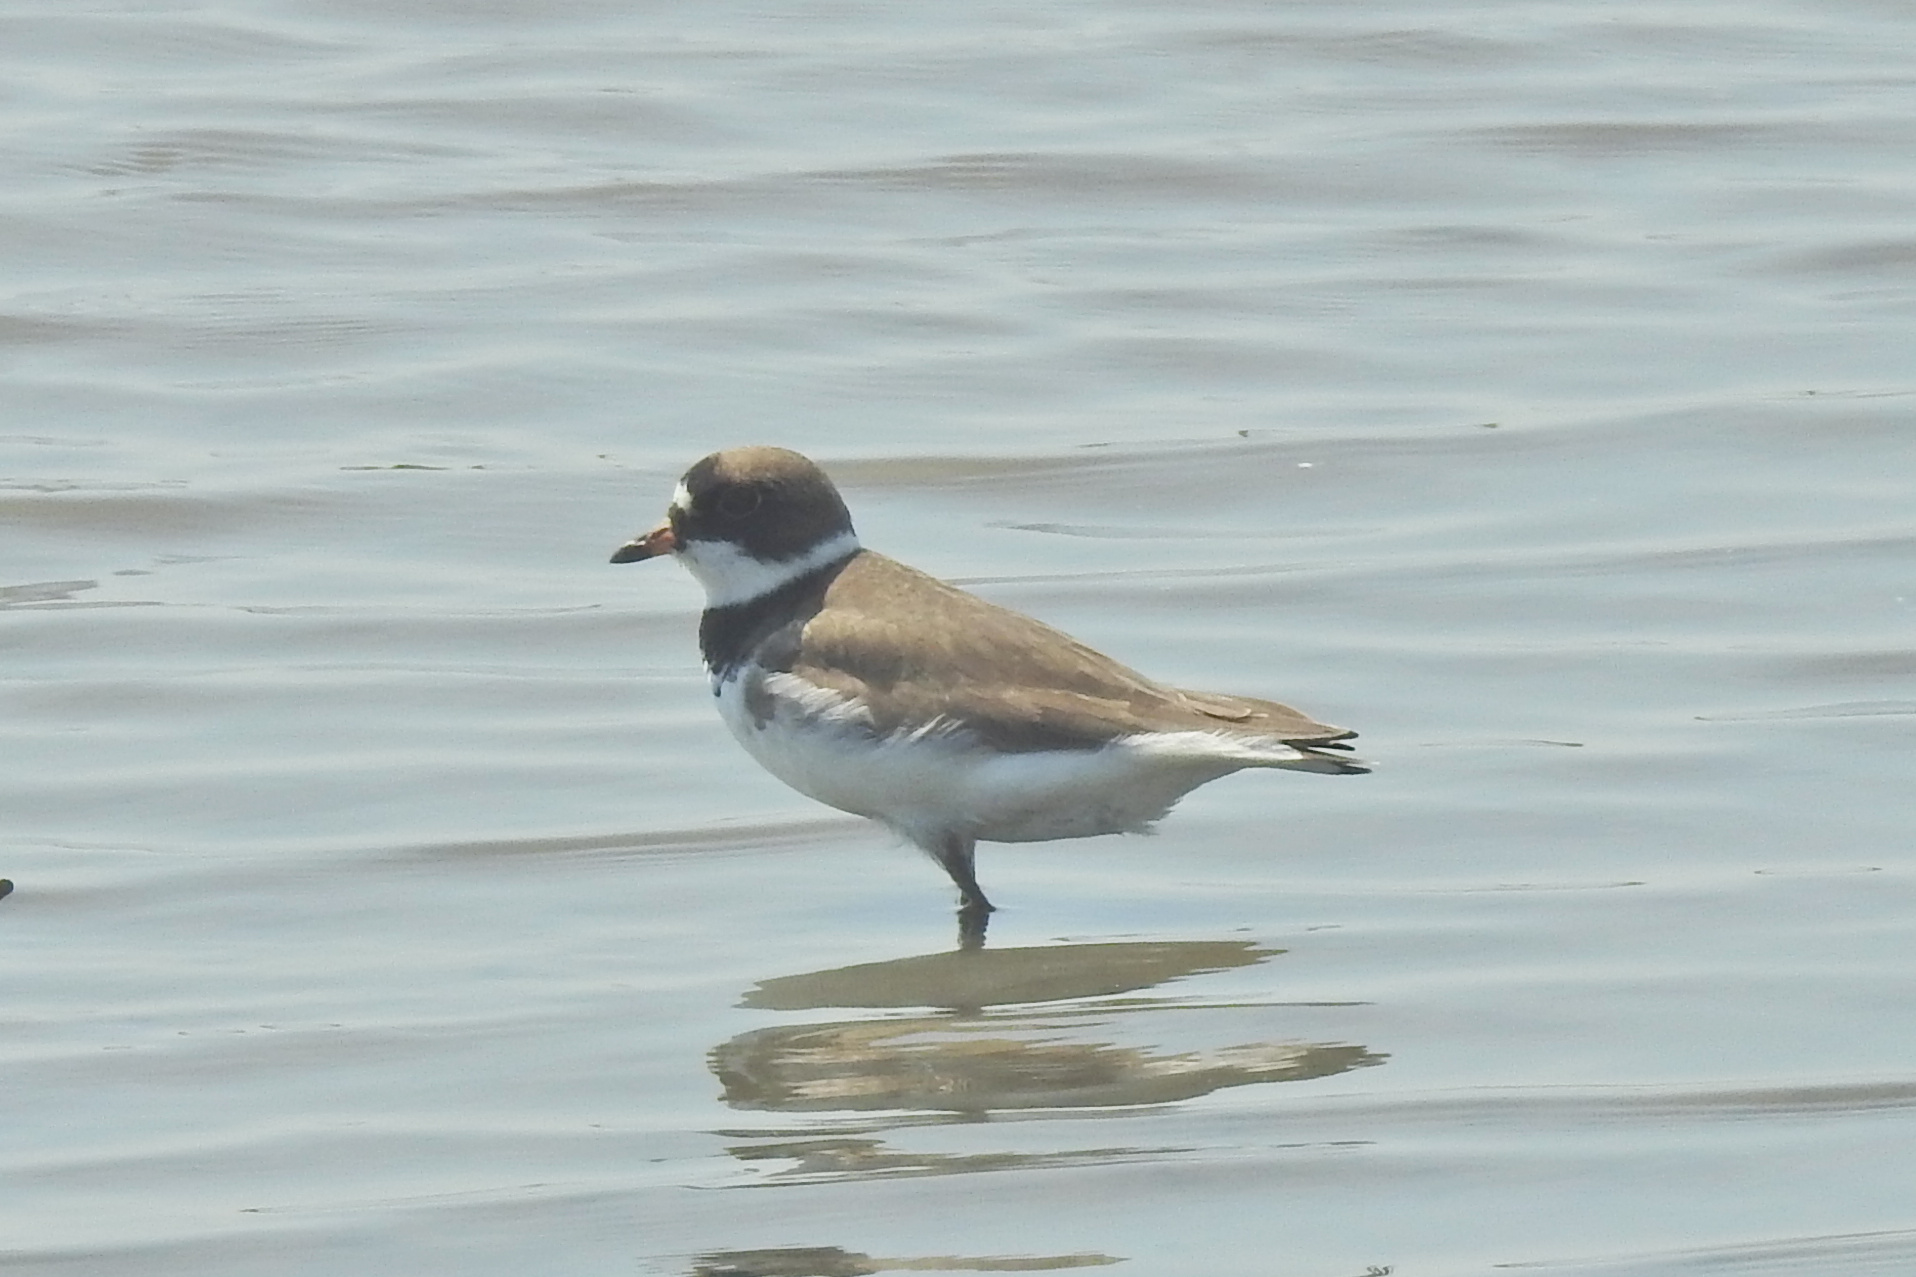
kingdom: Animalia
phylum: Chordata
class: Aves
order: Charadriiformes
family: Charadriidae
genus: Charadrius
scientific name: Charadrius semipalmatus
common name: Semipalmated plover
